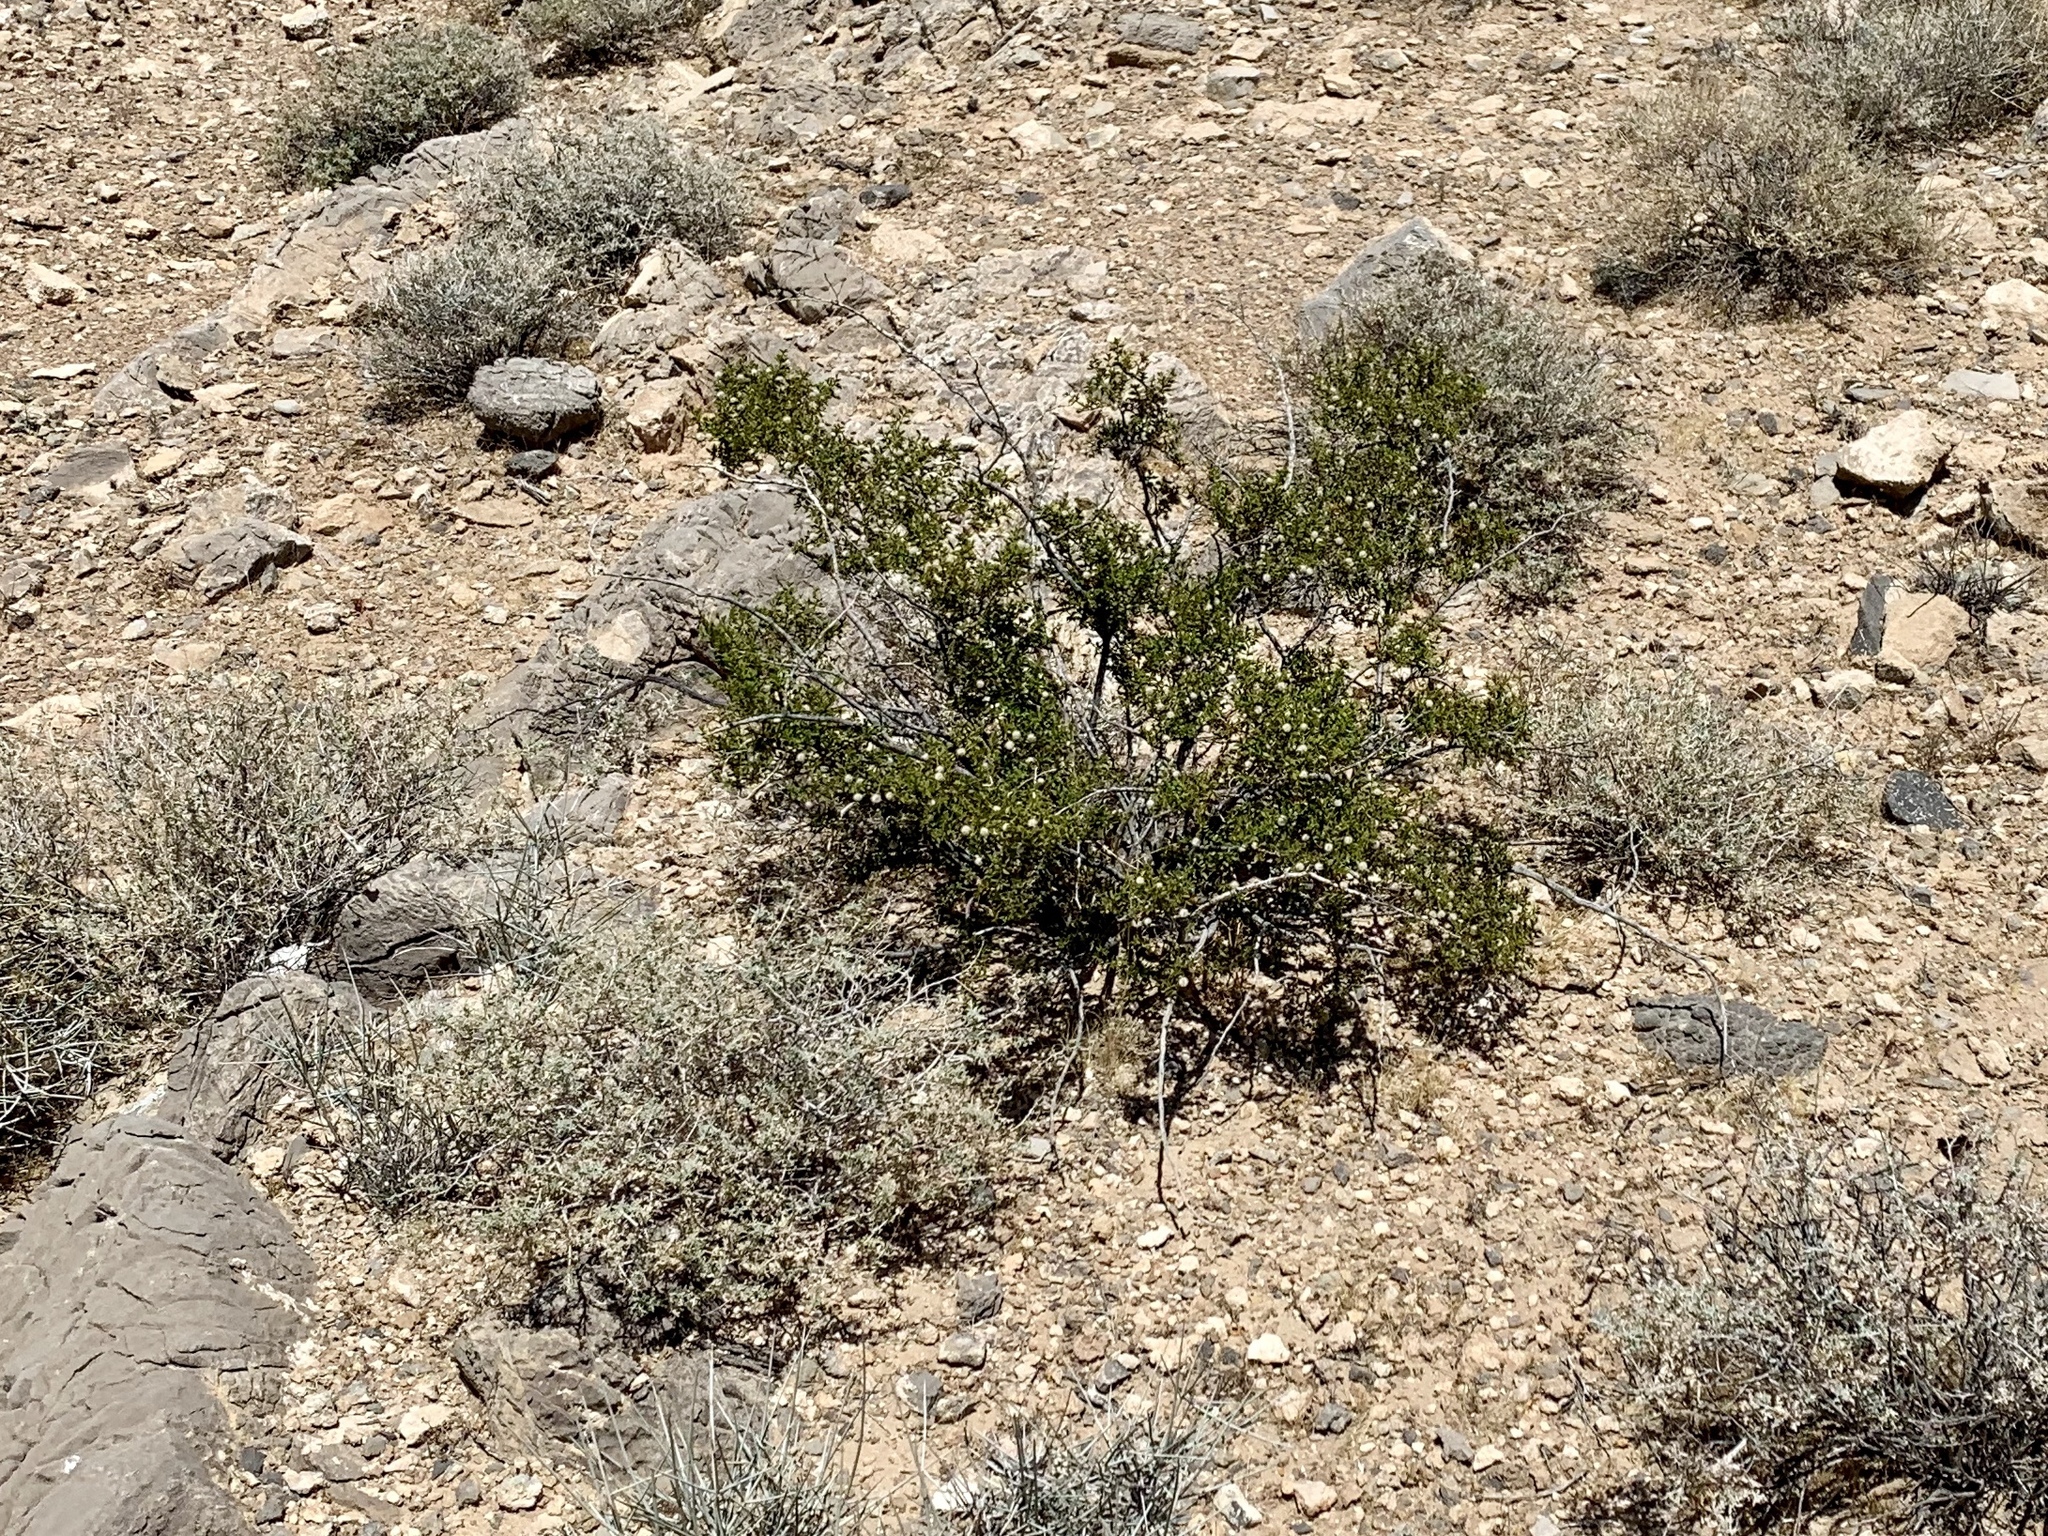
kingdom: Plantae
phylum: Tracheophyta
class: Magnoliopsida
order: Zygophyllales
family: Zygophyllaceae
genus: Larrea
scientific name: Larrea tridentata
